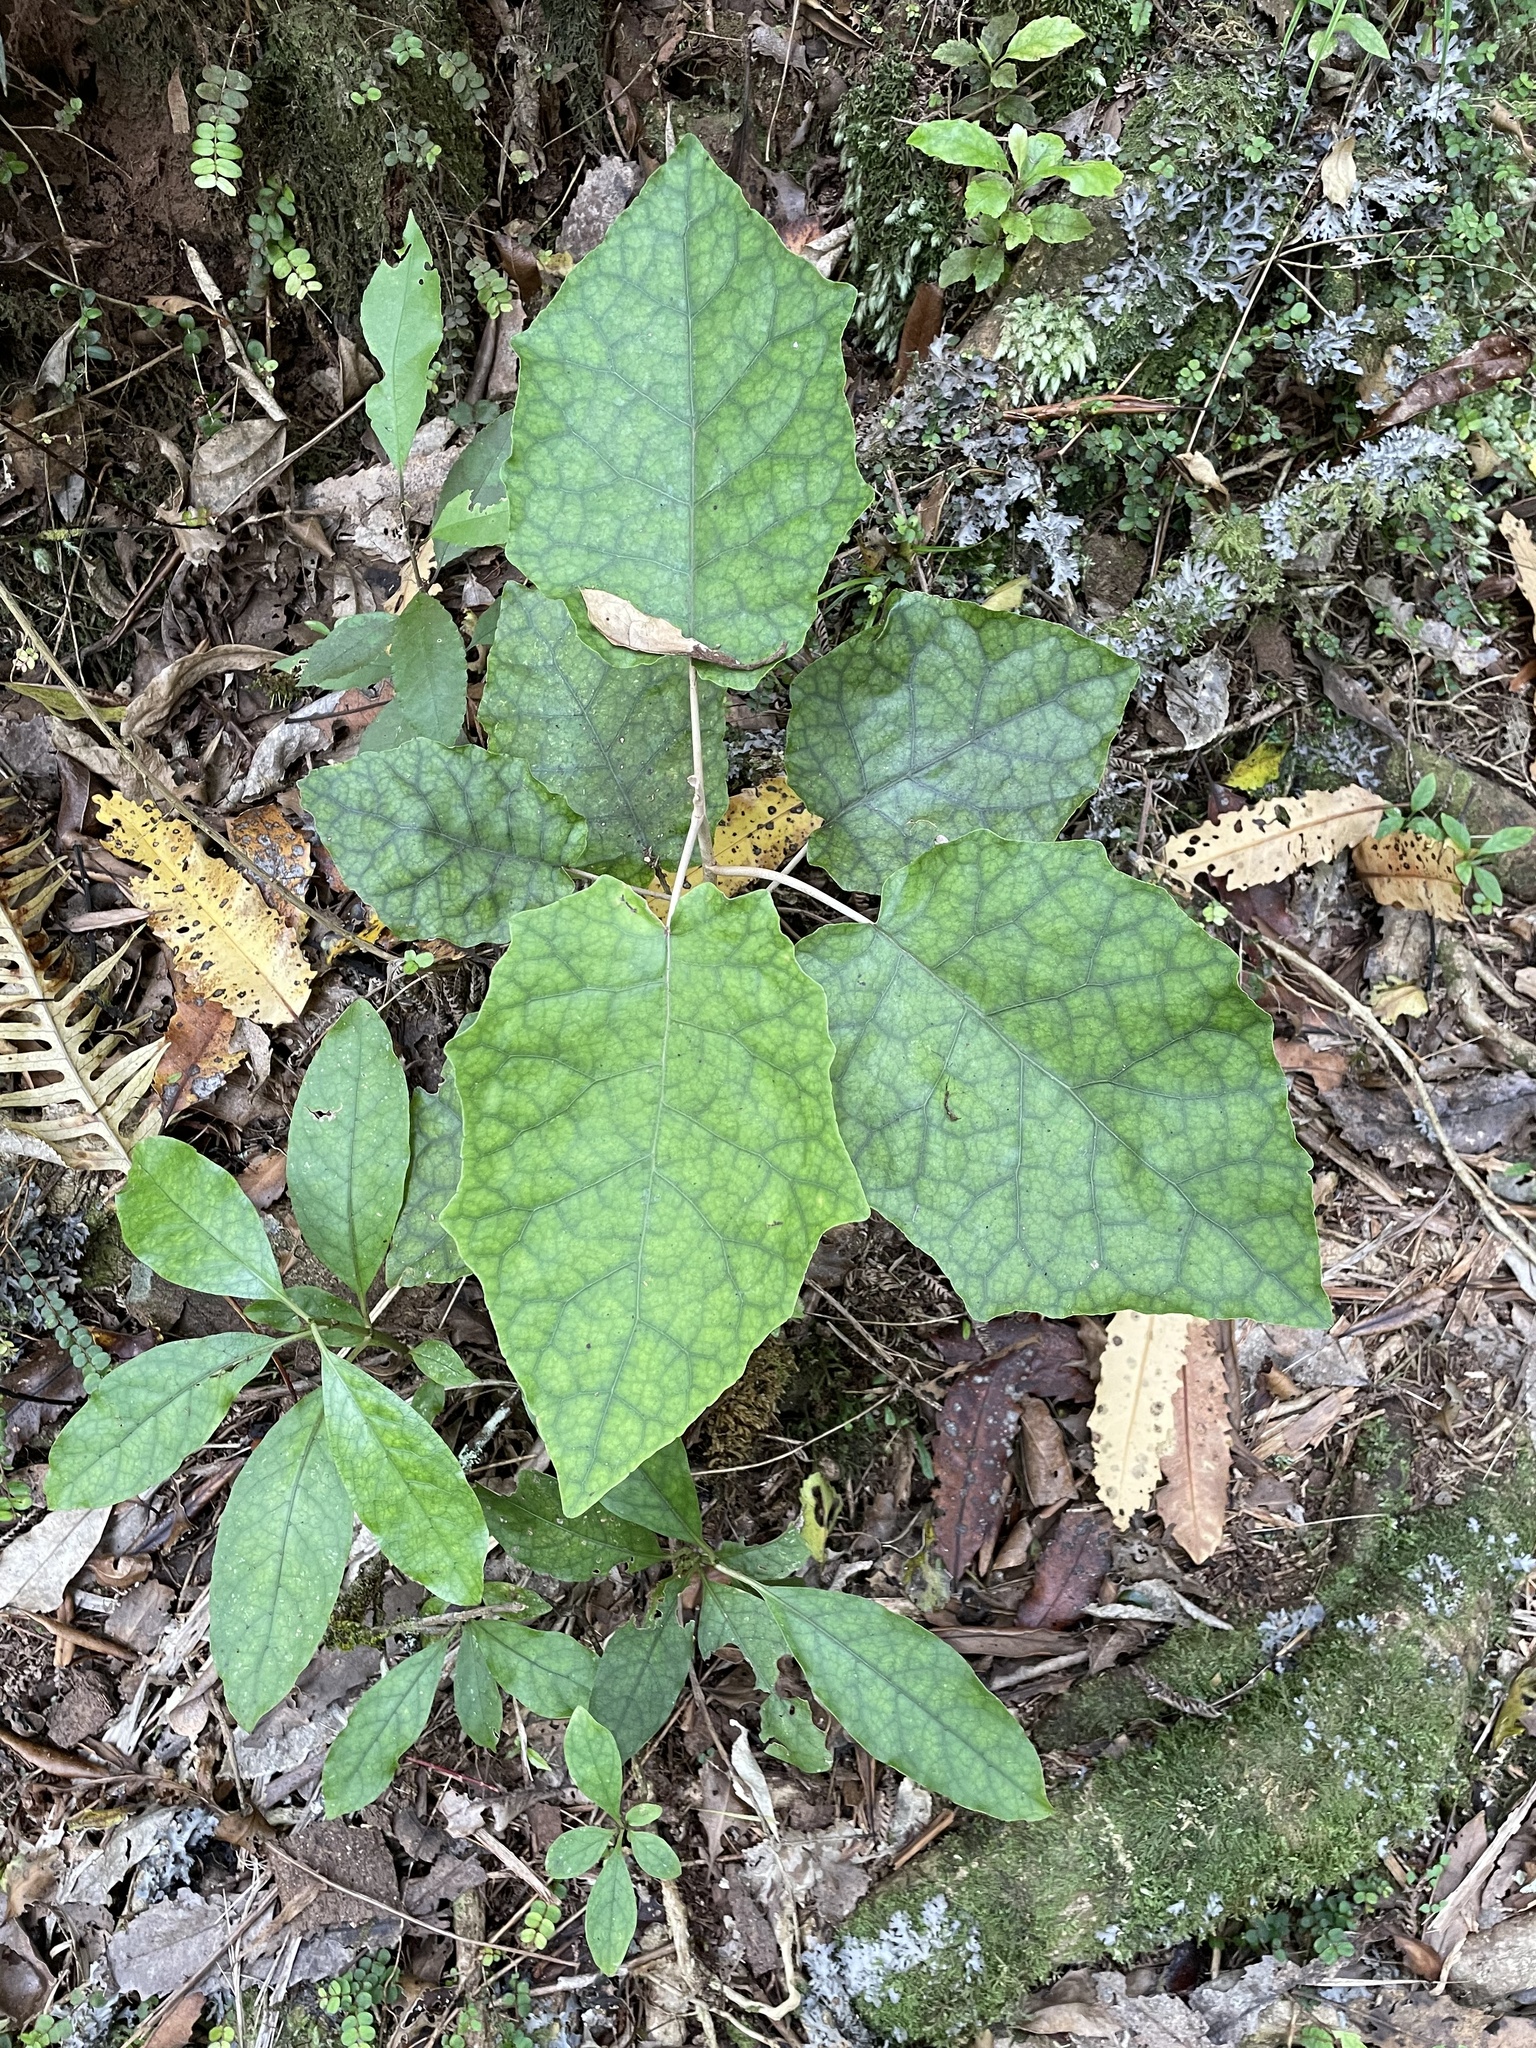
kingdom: Plantae
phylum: Tracheophyta
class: Magnoliopsida
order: Asterales
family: Asteraceae
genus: Brachyglottis
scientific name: Brachyglottis repanda
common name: Hedge ragwort
